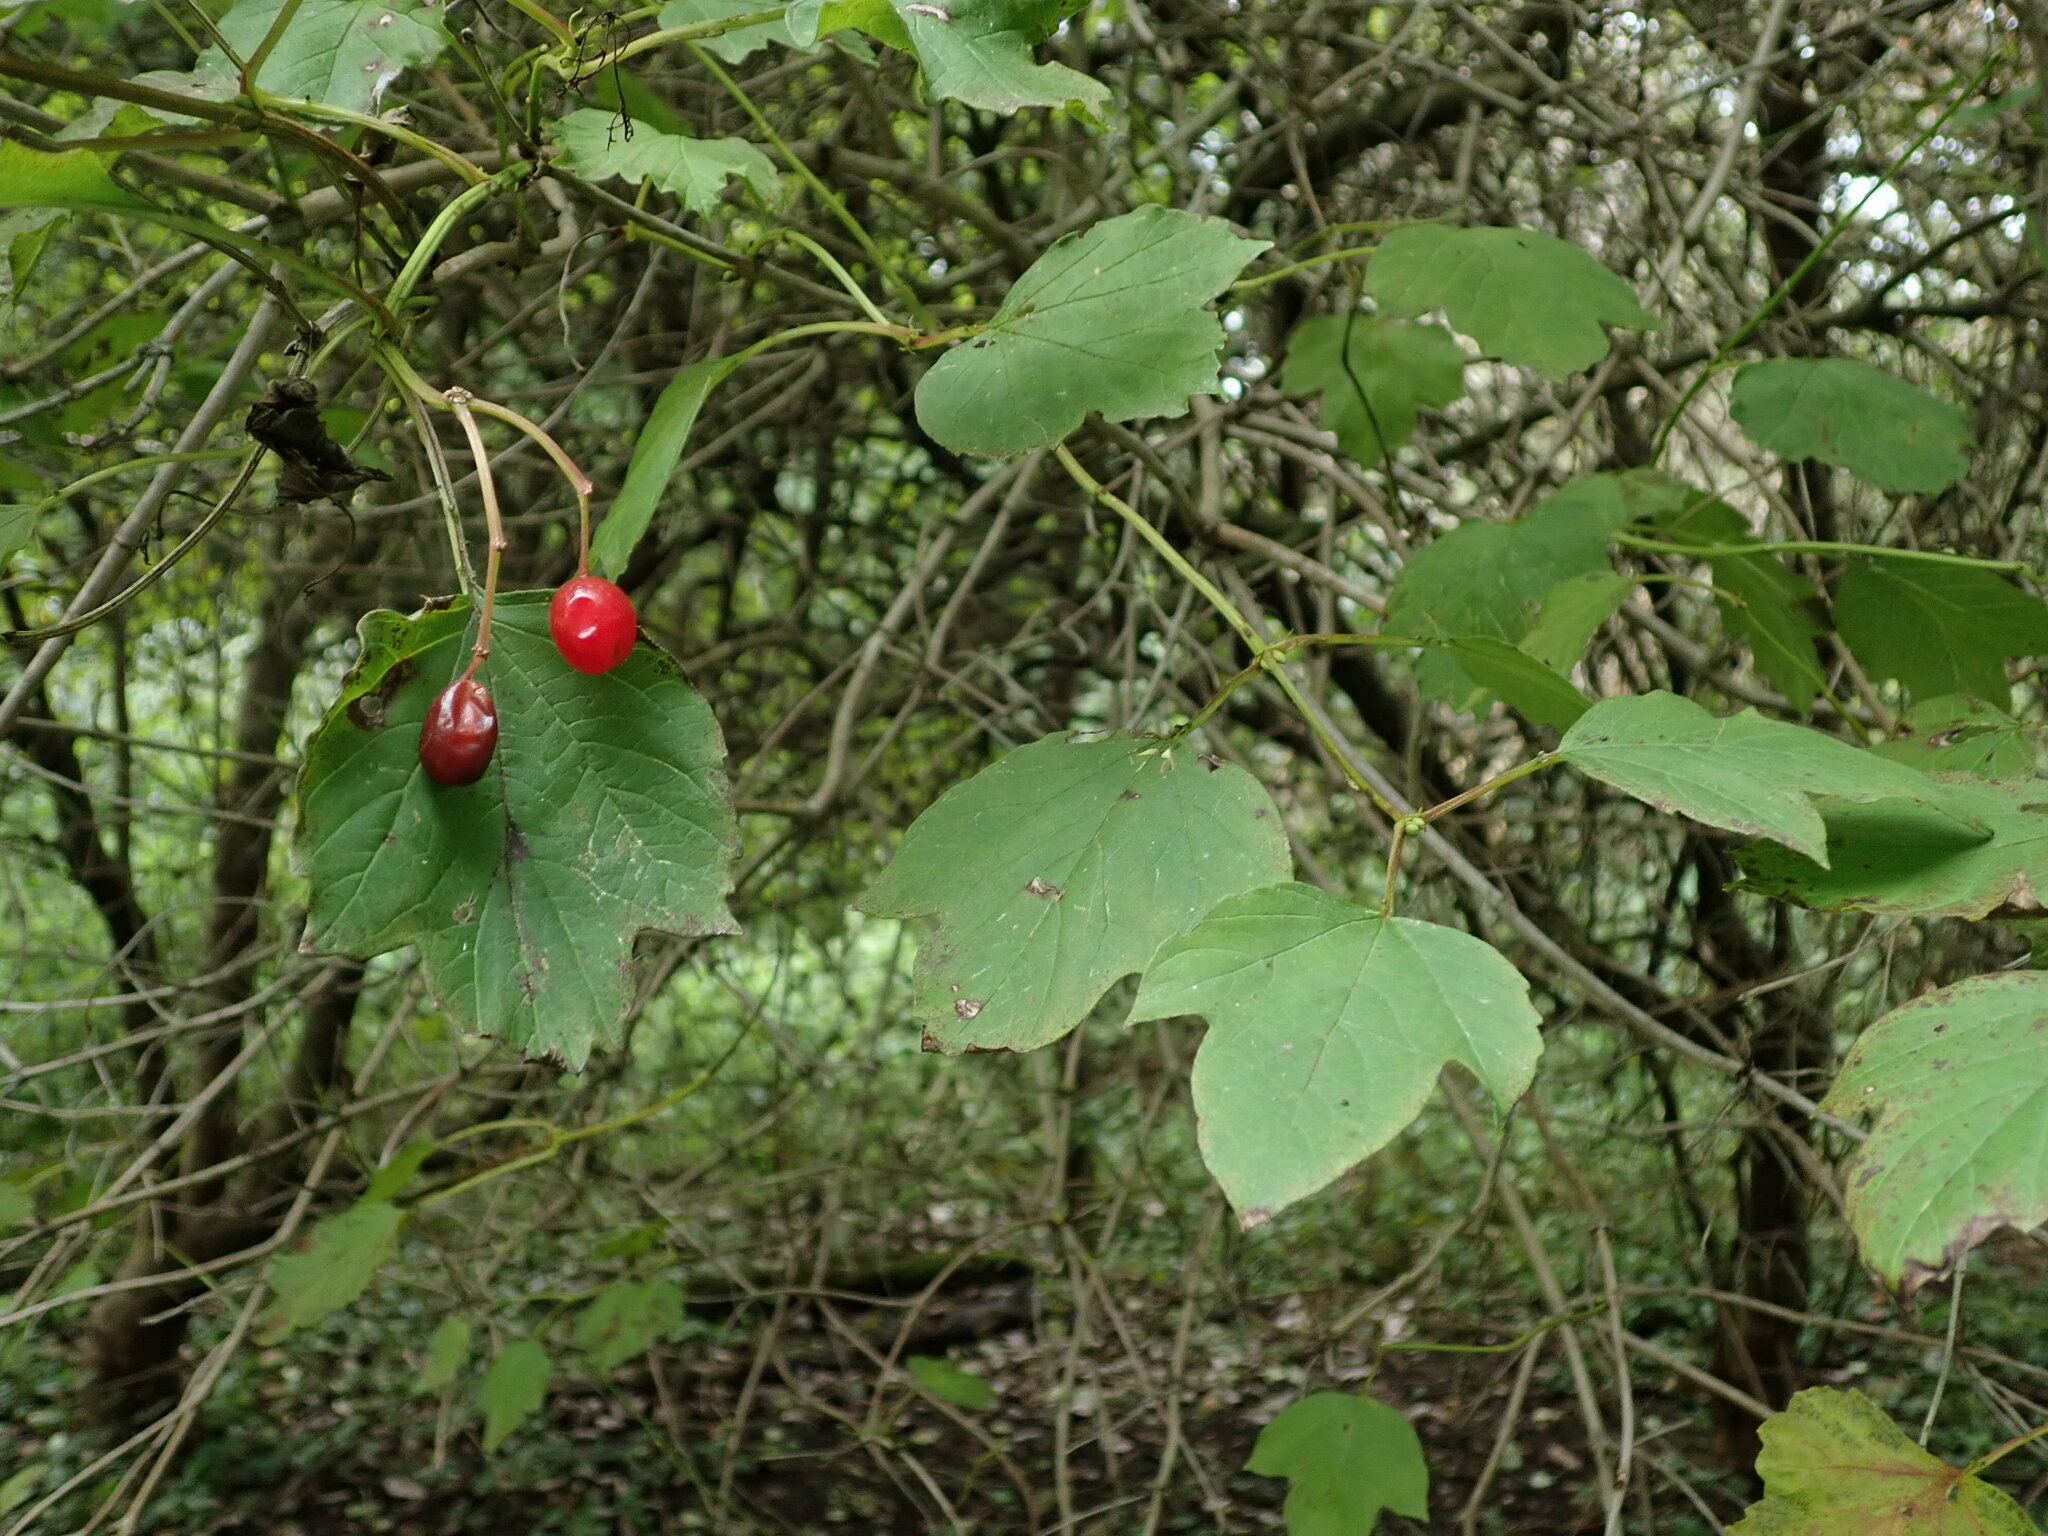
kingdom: Plantae
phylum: Tracheophyta
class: Magnoliopsida
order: Dipsacales
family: Viburnaceae
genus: Viburnum
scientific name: Viburnum opulus
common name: Guelder-rose
